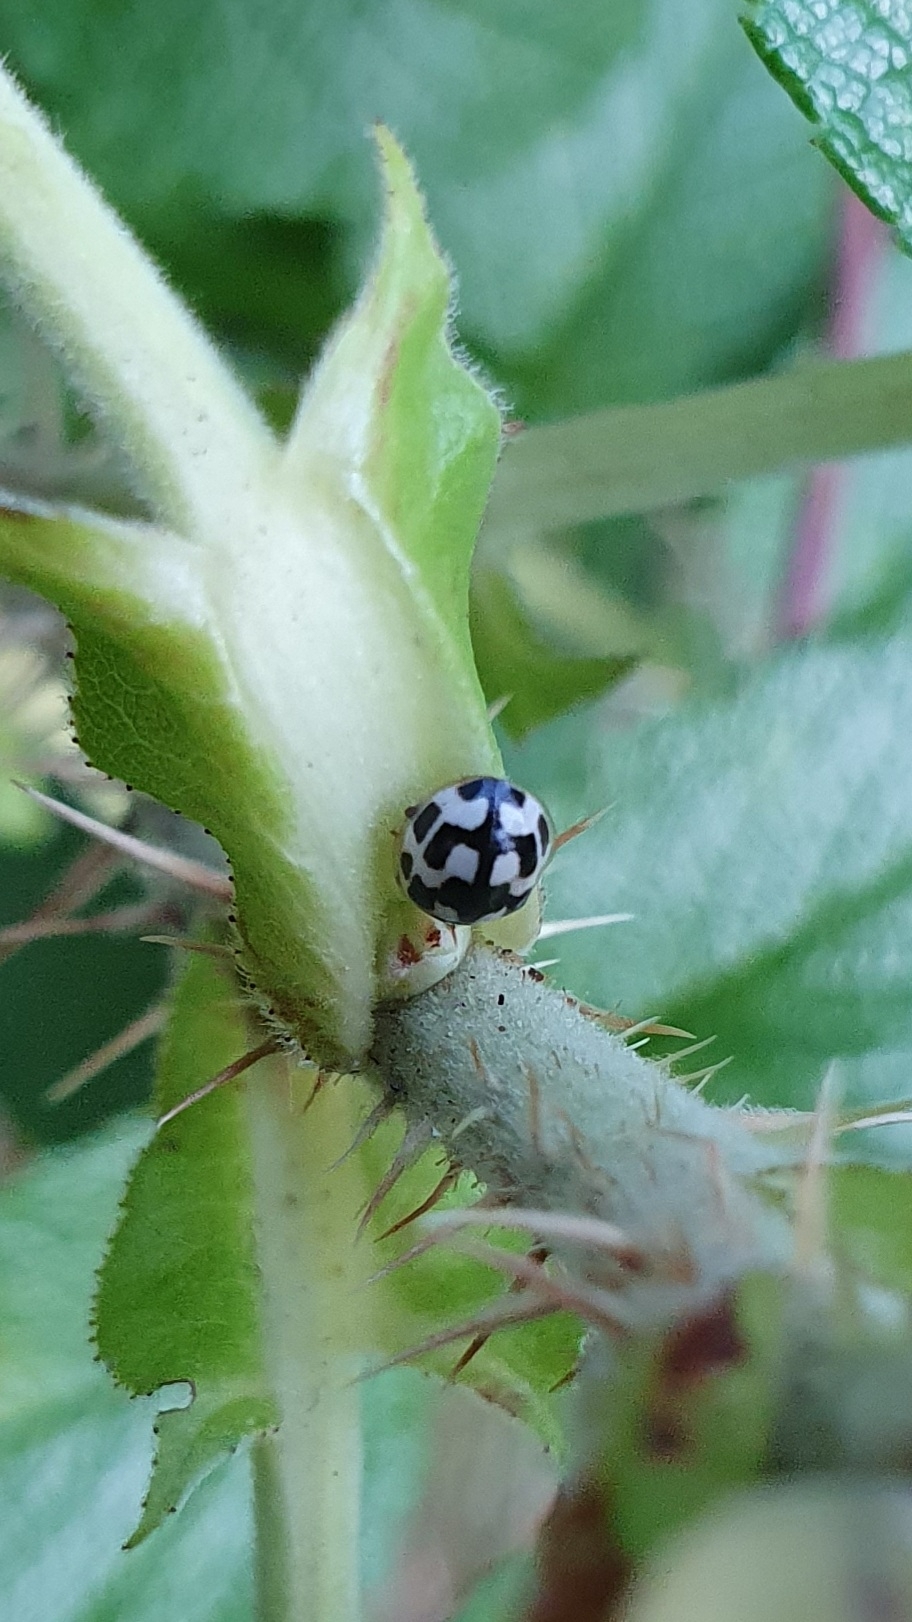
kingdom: Animalia
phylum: Arthropoda
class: Insecta
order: Coleoptera
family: Coccinellidae
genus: Propylaea
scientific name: Propylaea quatuordecimpunctata
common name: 14-spotted ladybird beetle
